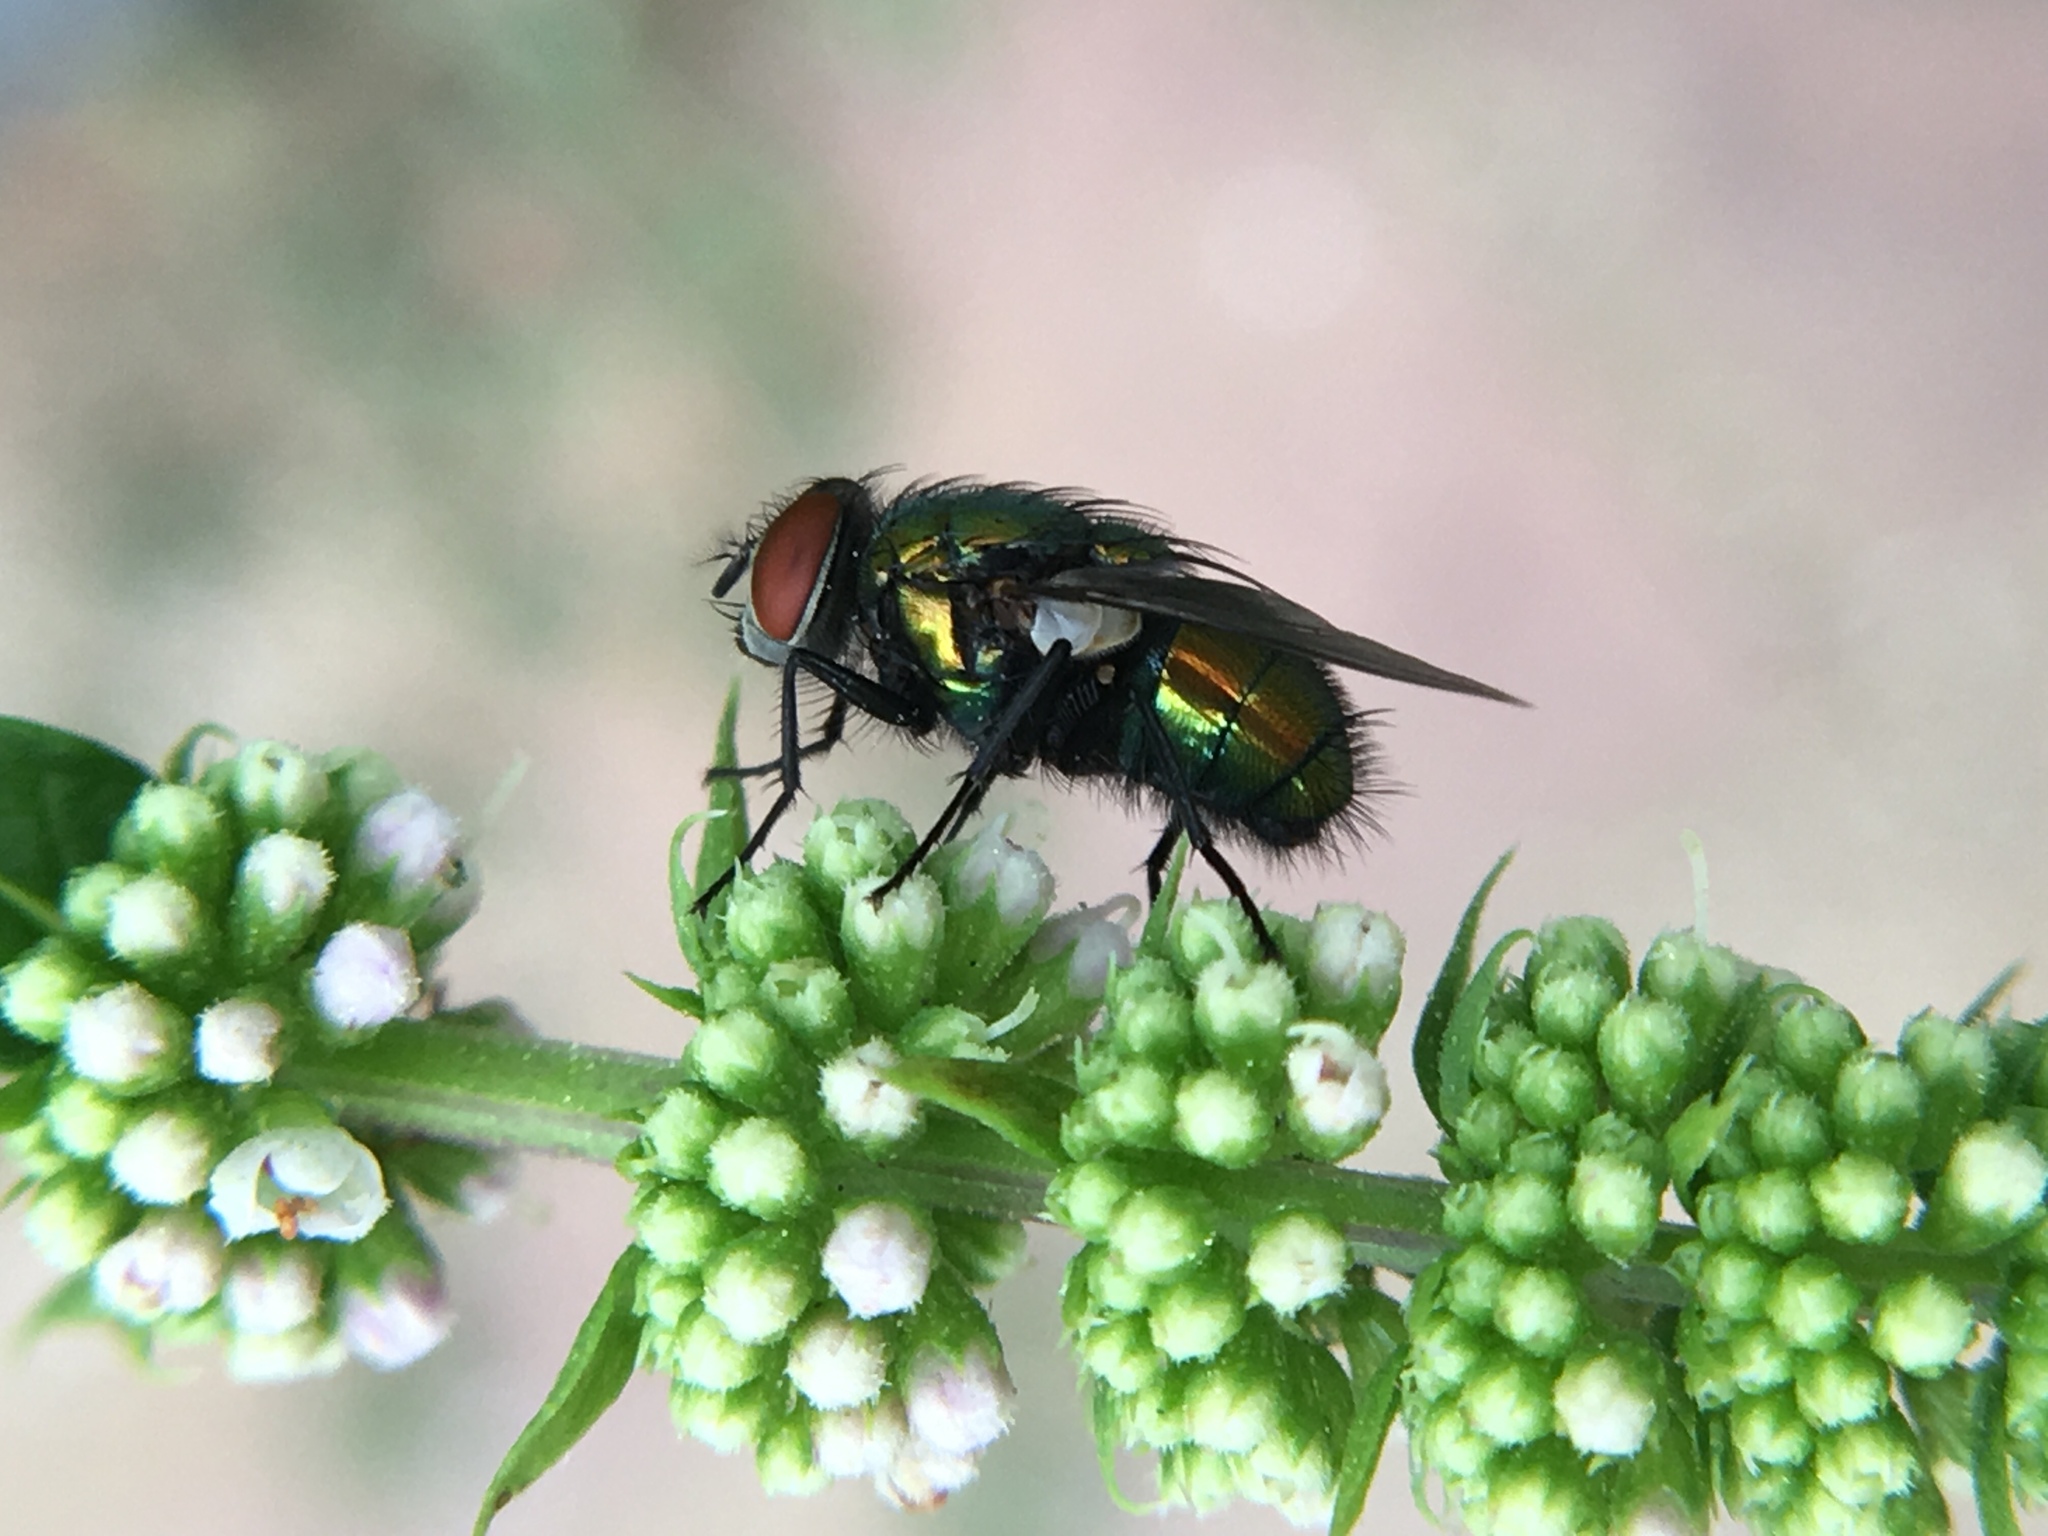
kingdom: Animalia
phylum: Arthropoda
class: Insecta
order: Diptera
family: Calliphoridae
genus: Lucilia
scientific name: Lucilia sericata
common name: Blow fly
